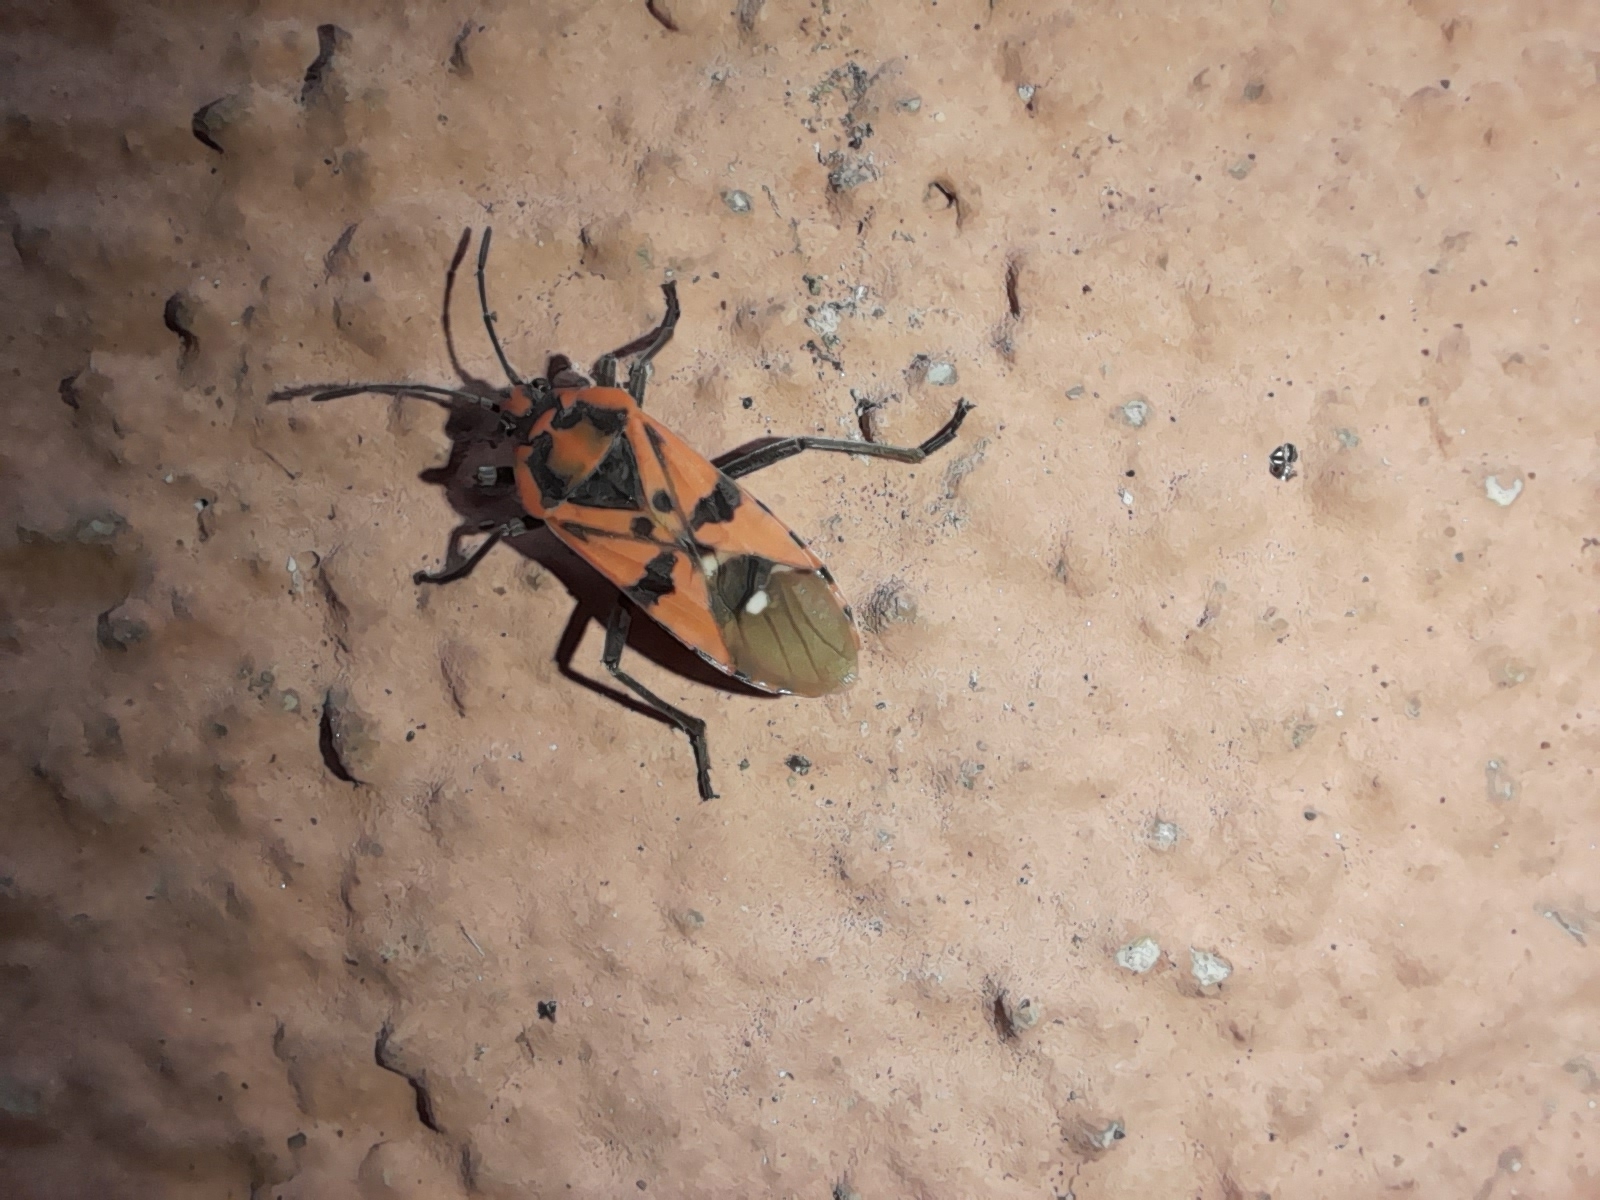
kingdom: Animalia
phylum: Arthropoda
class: Insecta
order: Hemiptera
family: Lygaeidae
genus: Spilostethus
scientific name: Spilostethus pandurus
